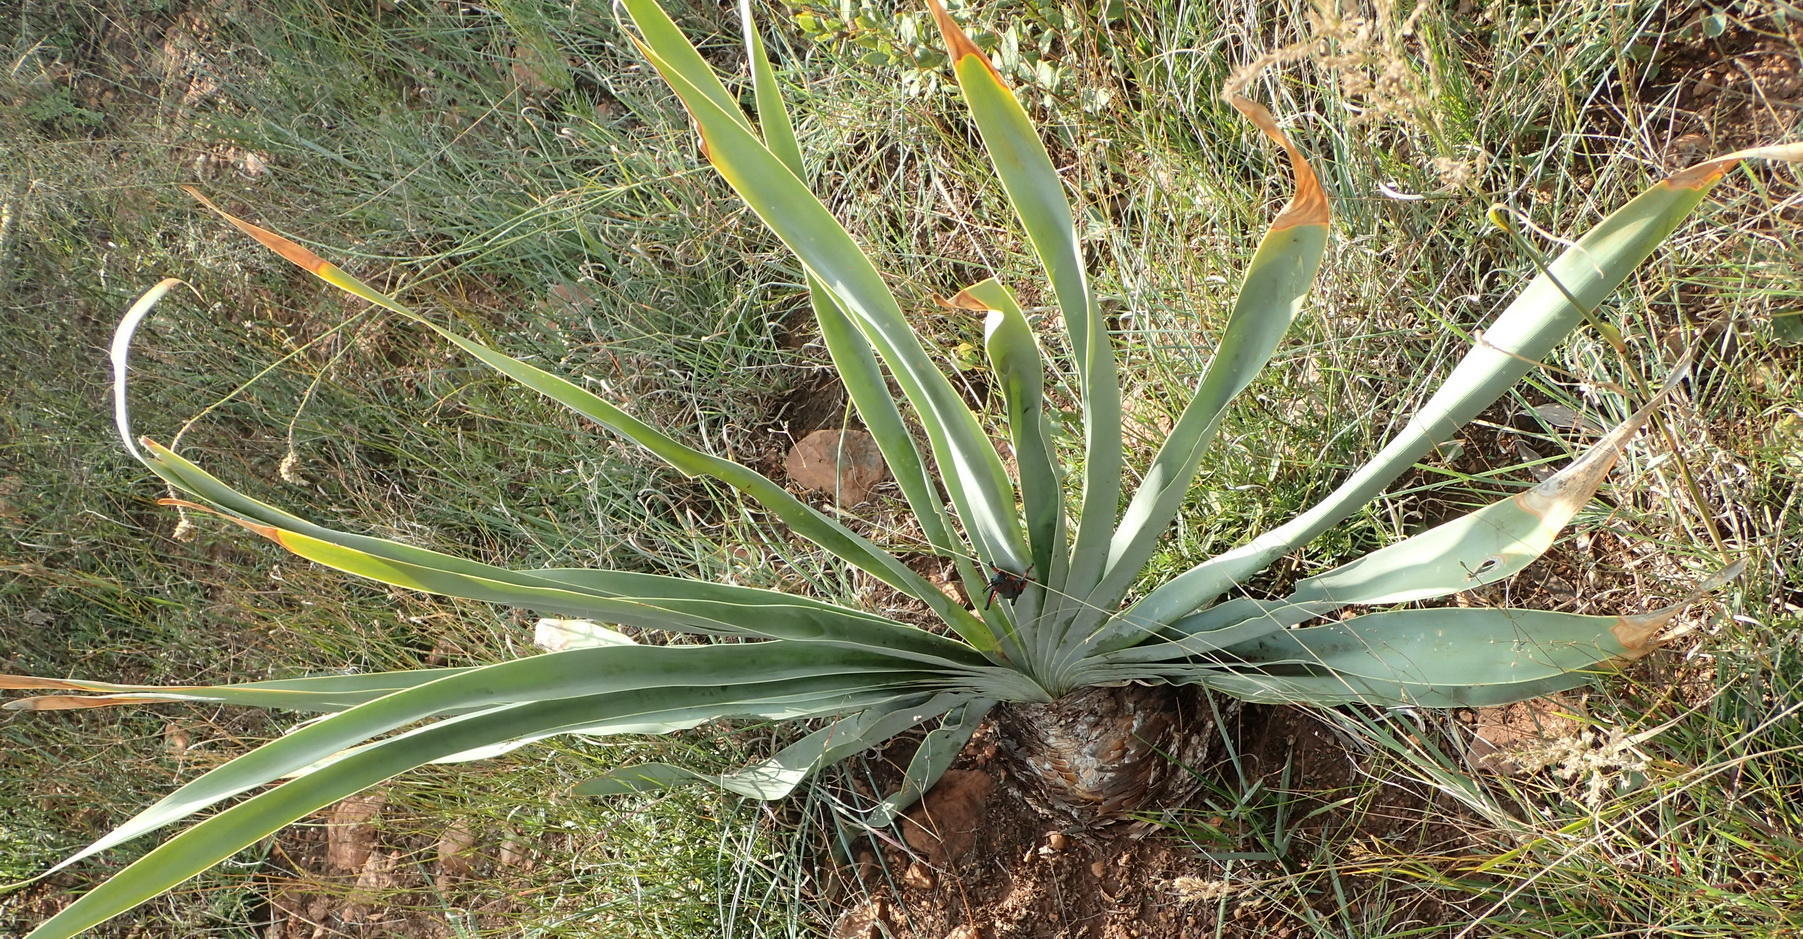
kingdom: Plantae
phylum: Tracheophyta
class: Liliopsida
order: Asparagales
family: Amaryllidaceae
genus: Boophone
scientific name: Boophone disticha
